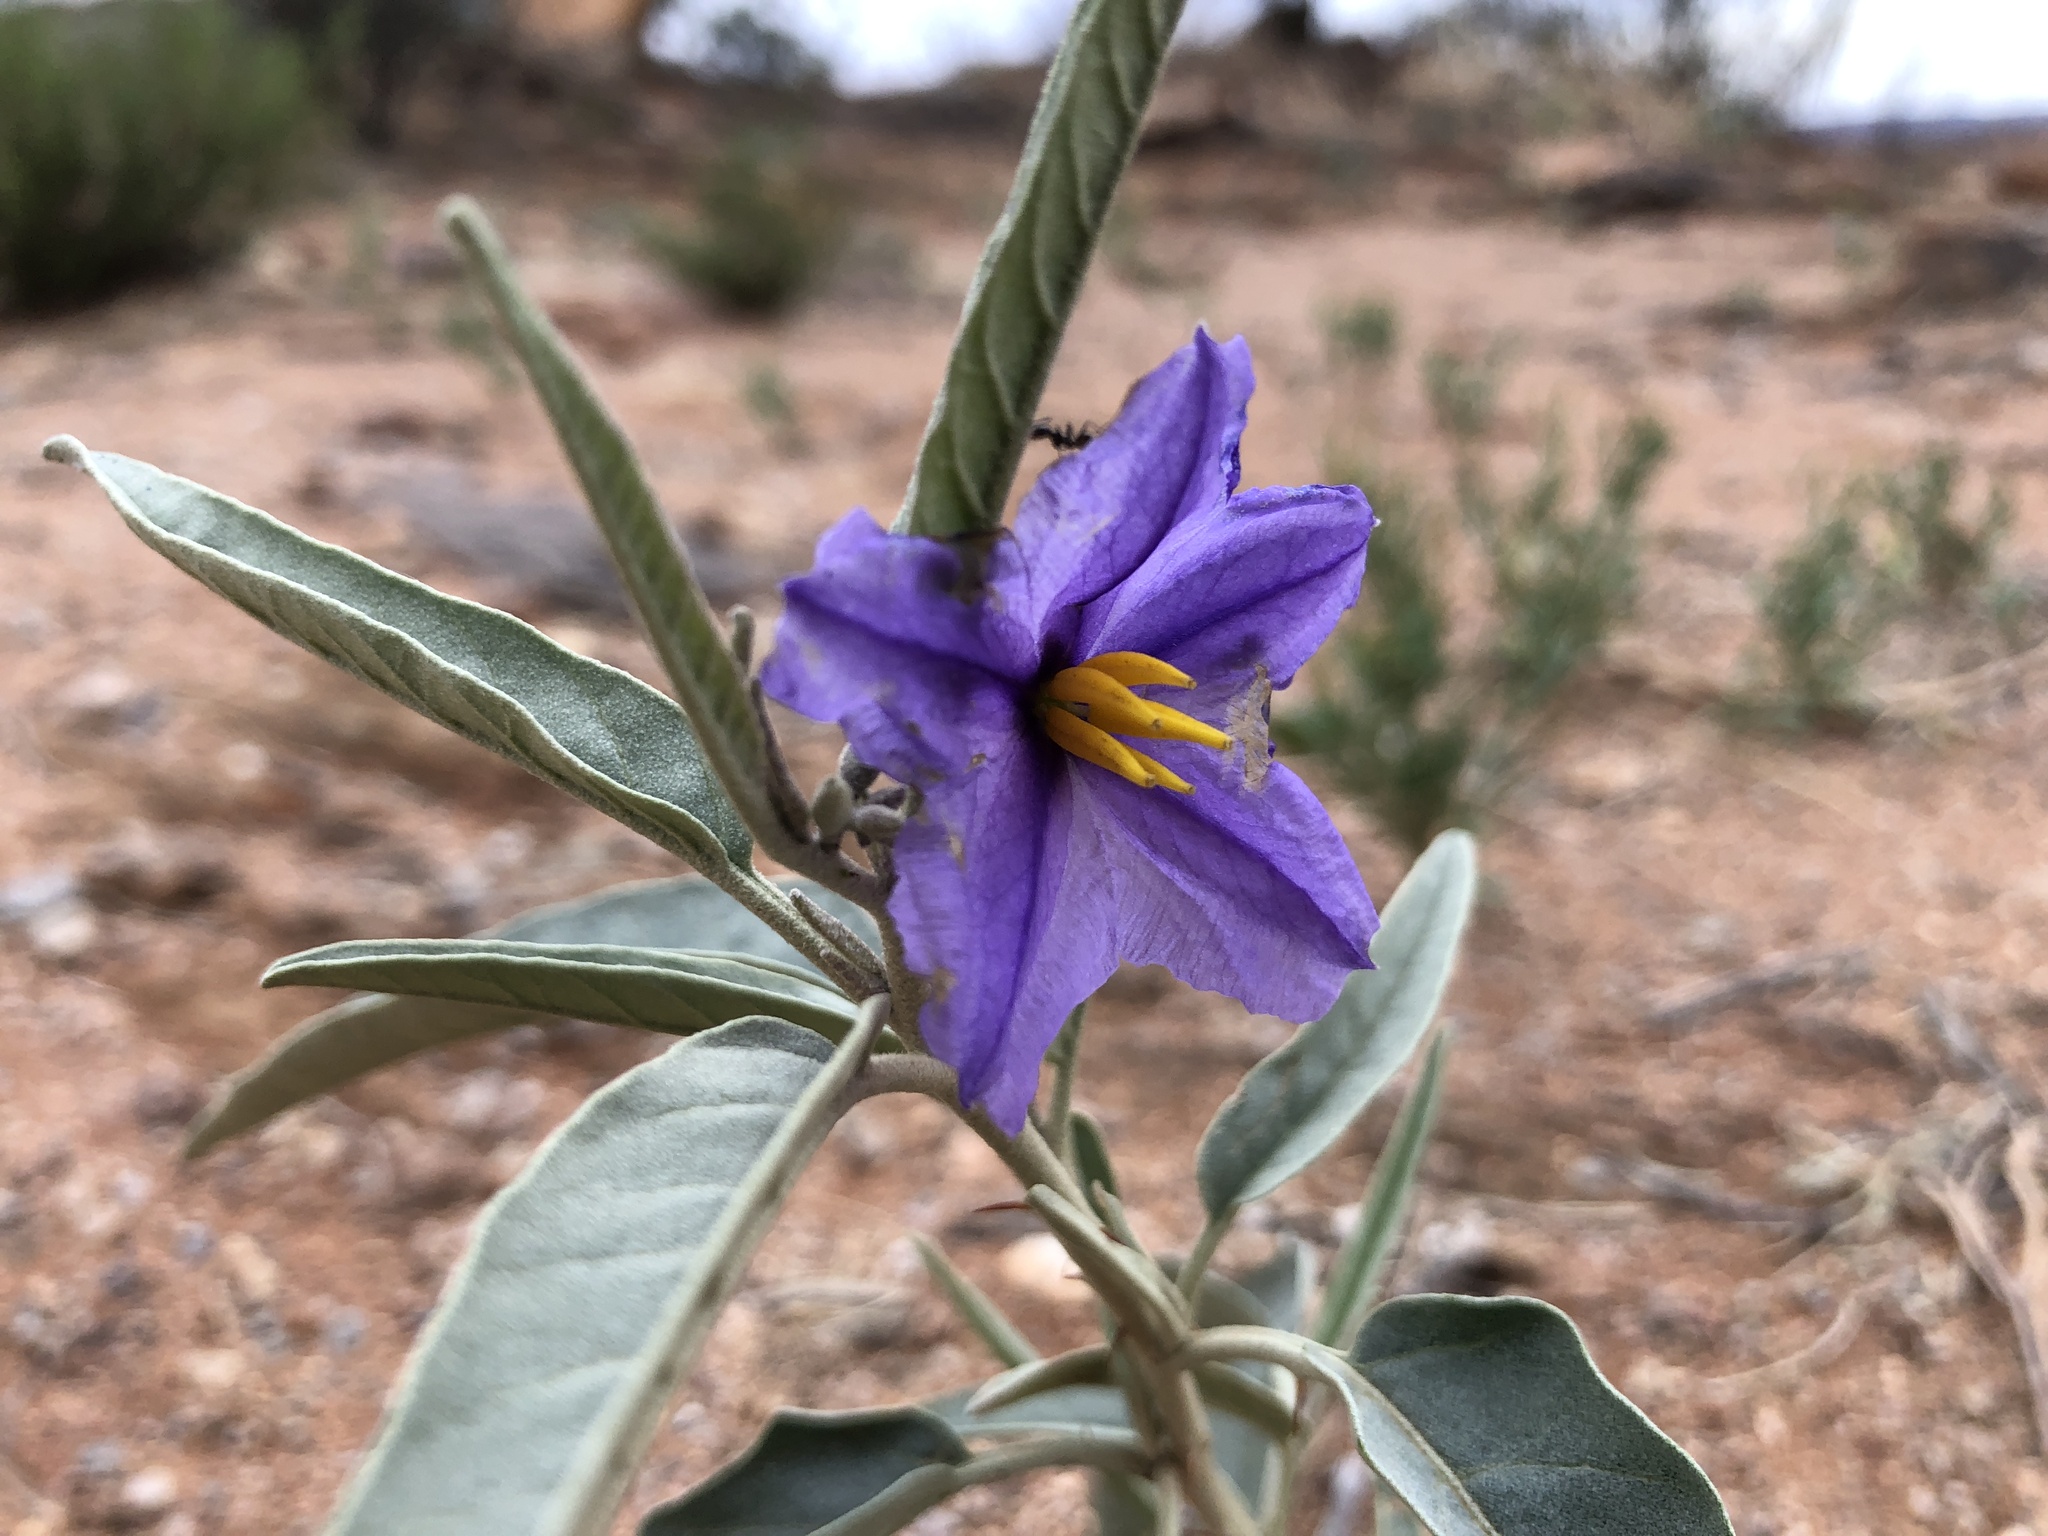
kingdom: Plantae
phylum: Tracheophyta
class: Magnoliopsida
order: Solanales
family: Solanaceae
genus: Solanum
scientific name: Solanum sturtianum
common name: Thargomindah nightshade
